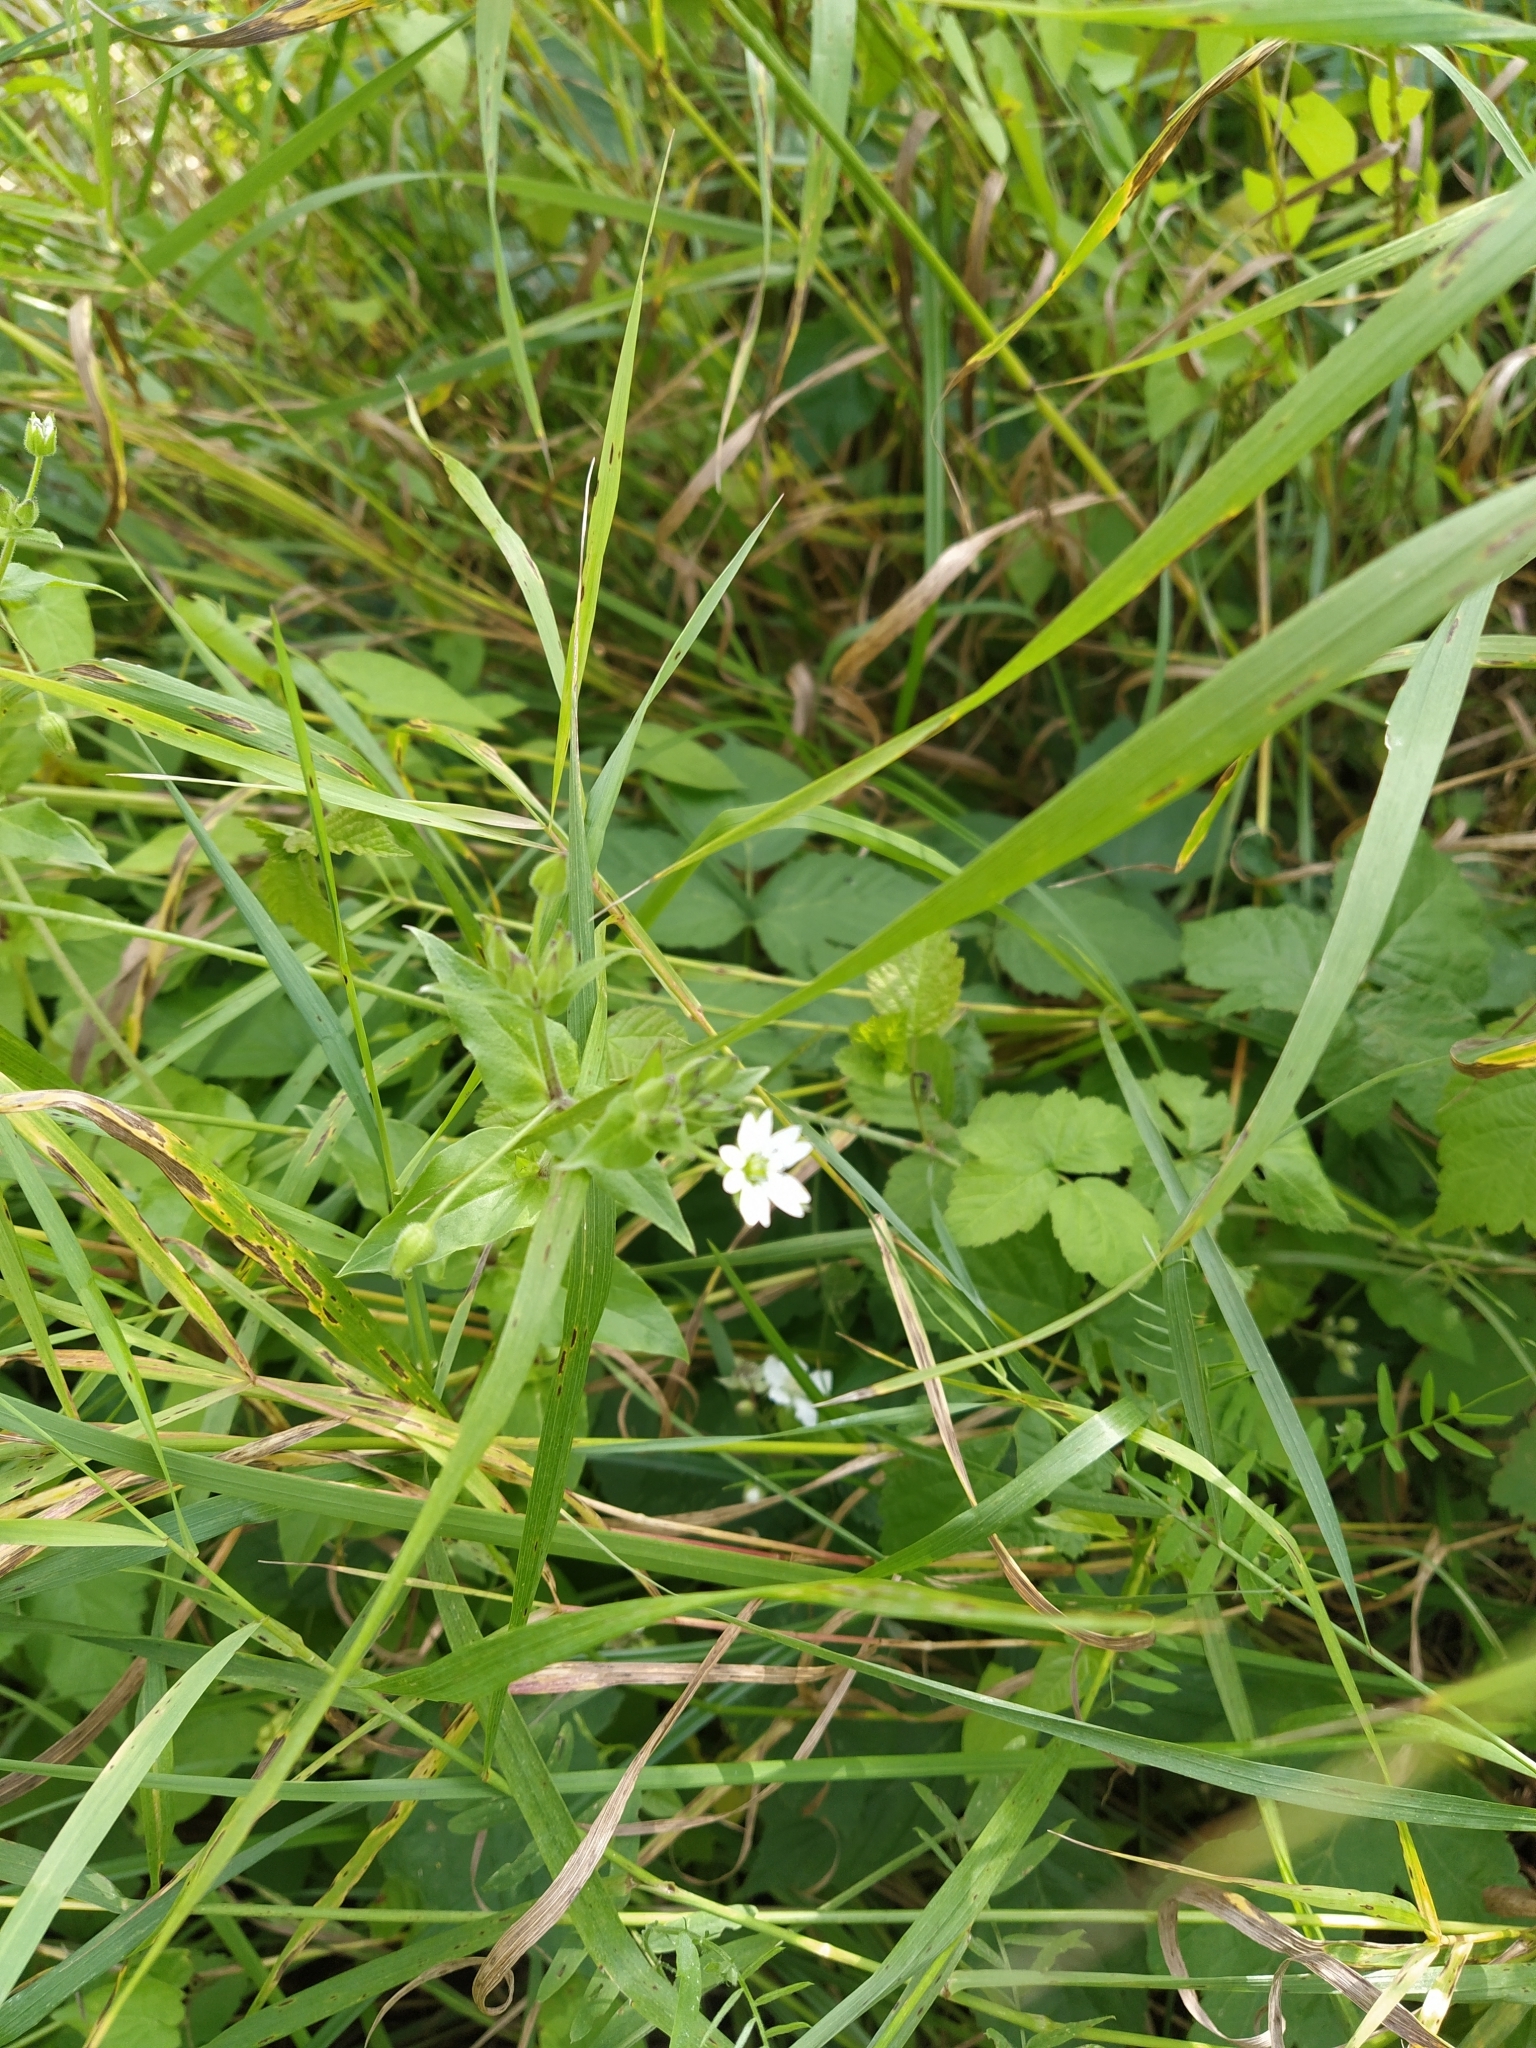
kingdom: Plantae
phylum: Tracheophyta
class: Magnoliopsida
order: Caryophyllales
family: Caryophyllaceae
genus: Stellaria
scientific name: Stellaria aquatica
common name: Water chickweed
